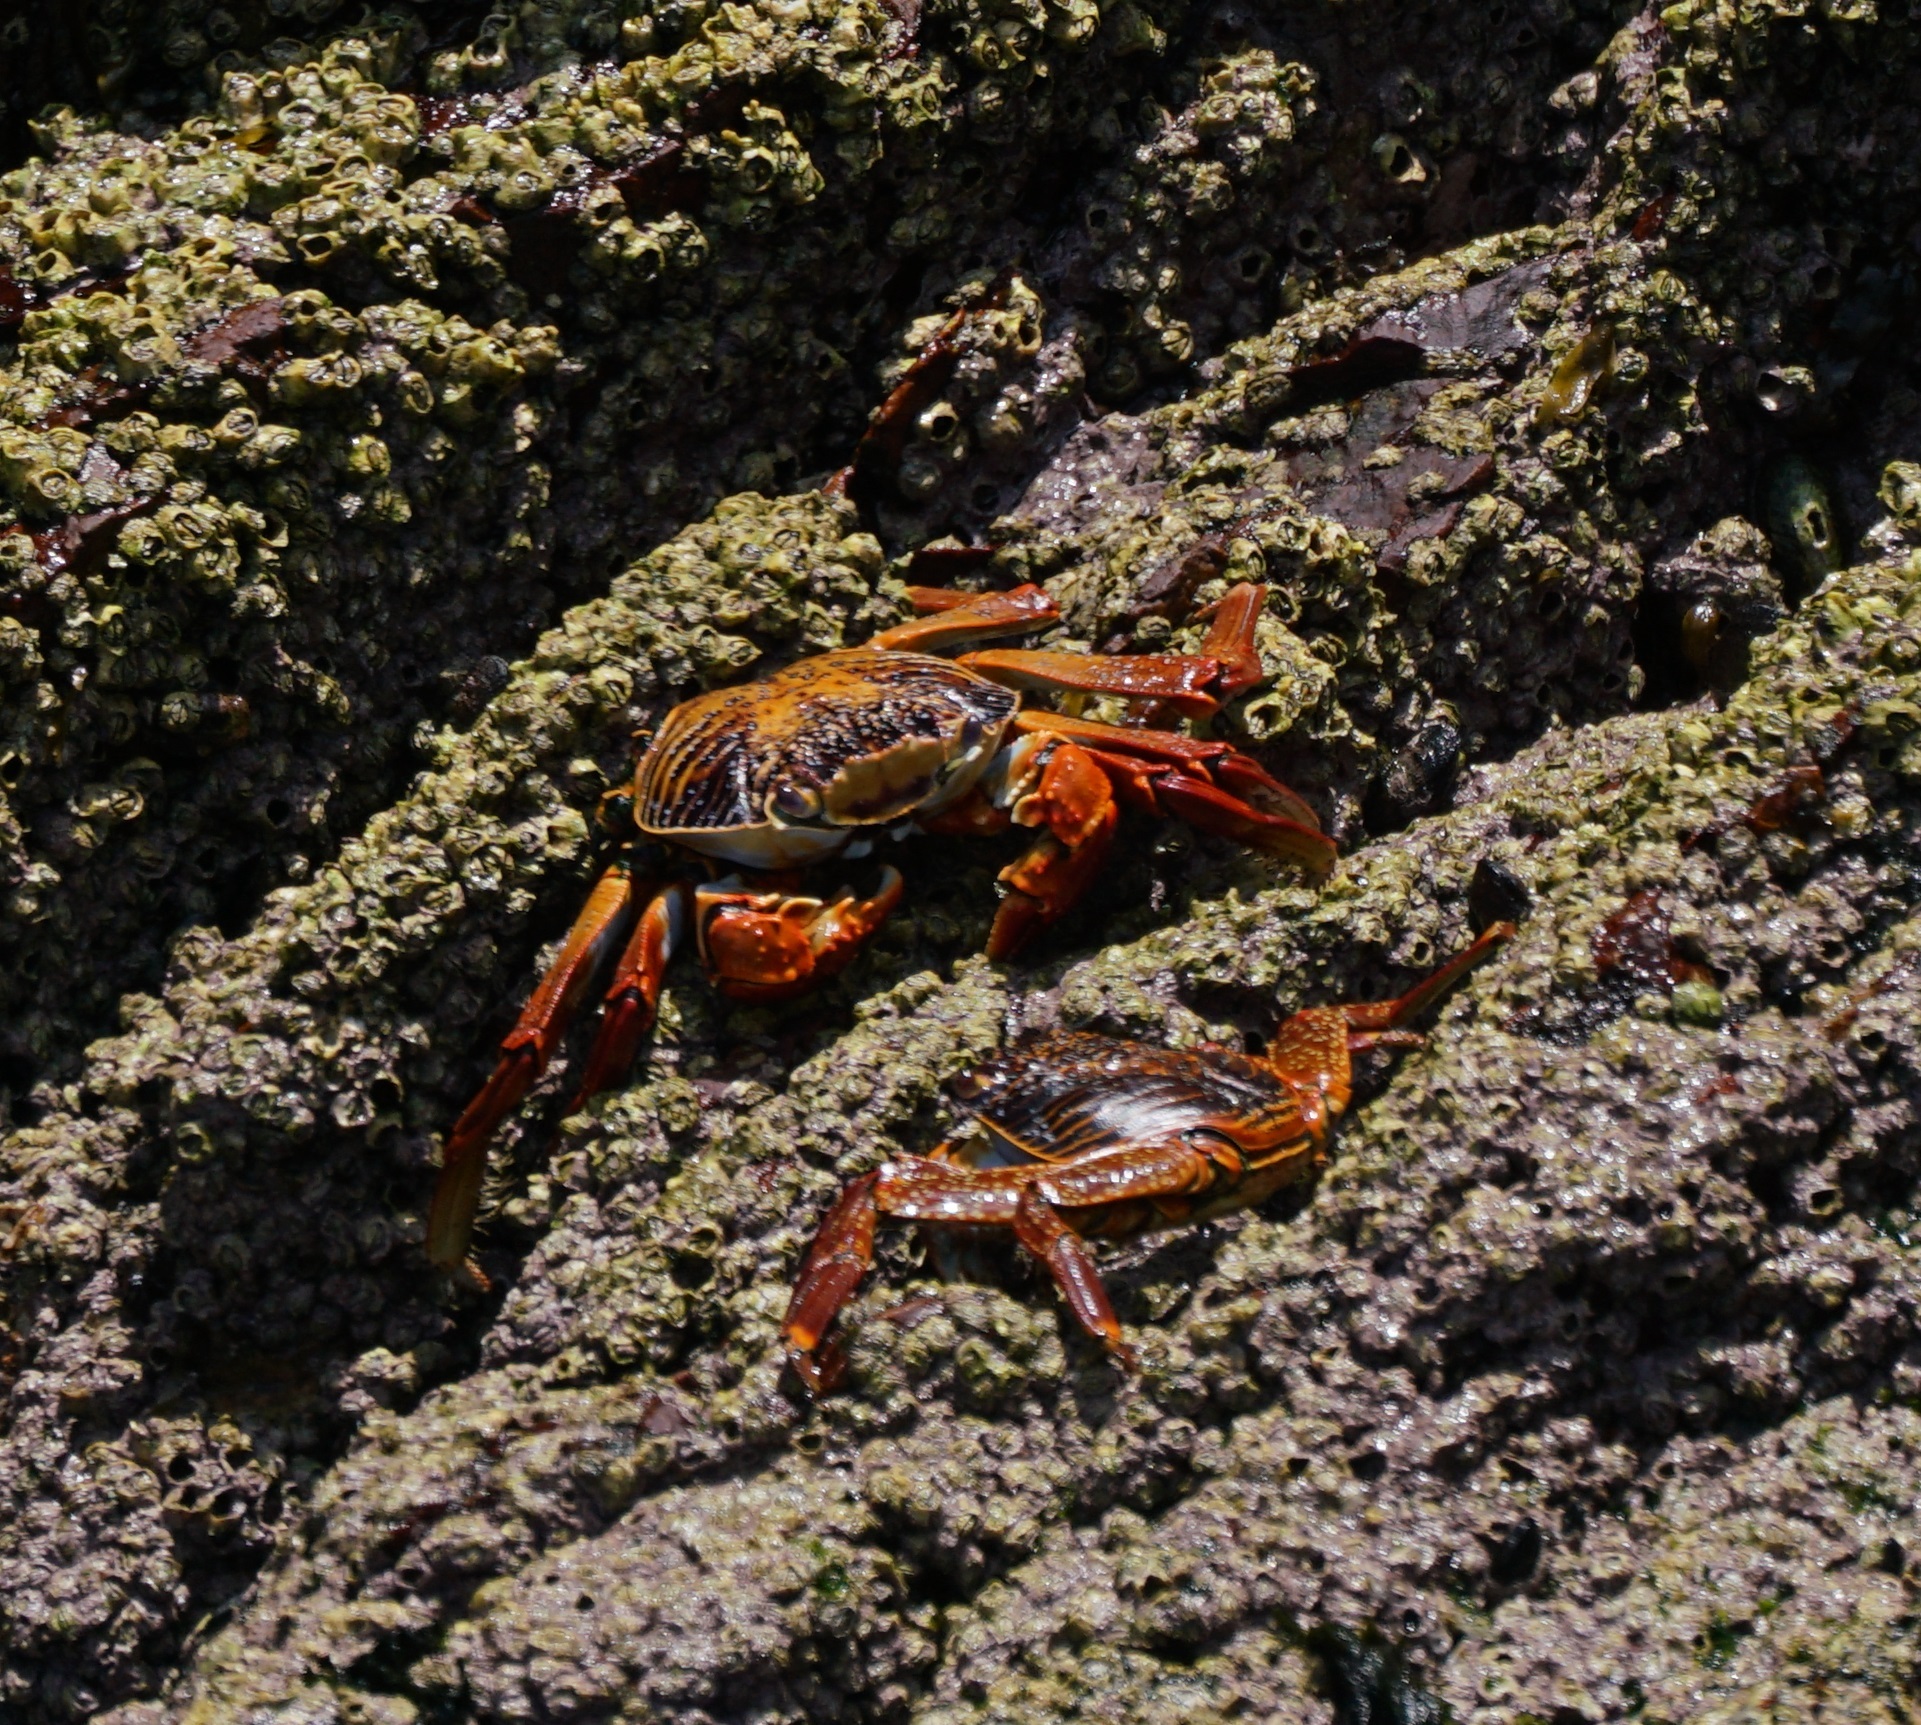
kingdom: Animalia
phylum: Arthropoda
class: Malacostraca
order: Decapoda
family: Grapsidae
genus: Grapsus
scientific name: Grapsus grapsus
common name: Sally lightfoot
